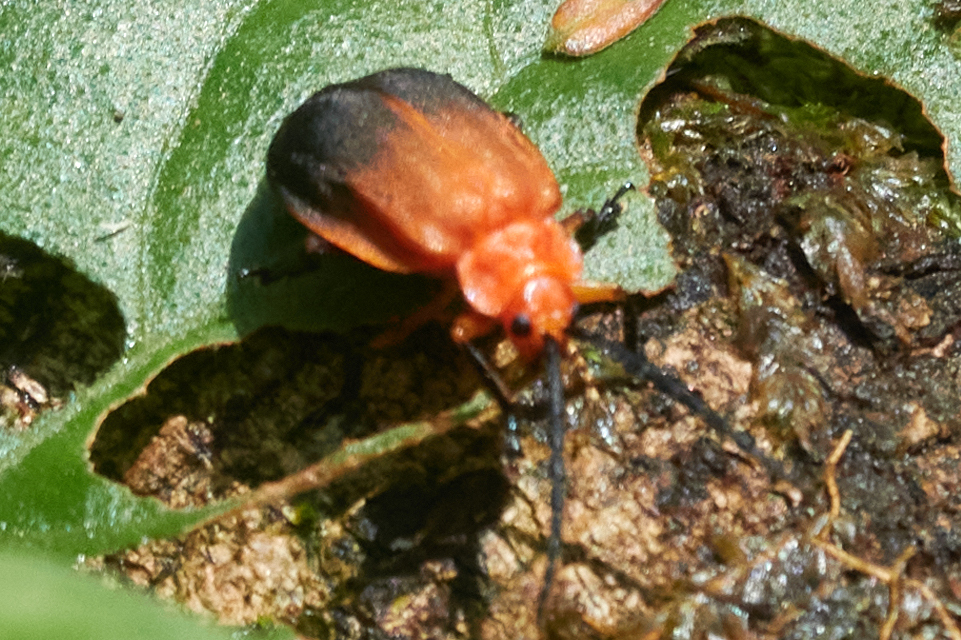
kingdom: Animalia
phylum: Arthropoda
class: Insecta
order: Coleoptera
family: Chrysomelidae
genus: Platycesta
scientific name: Platycesta
